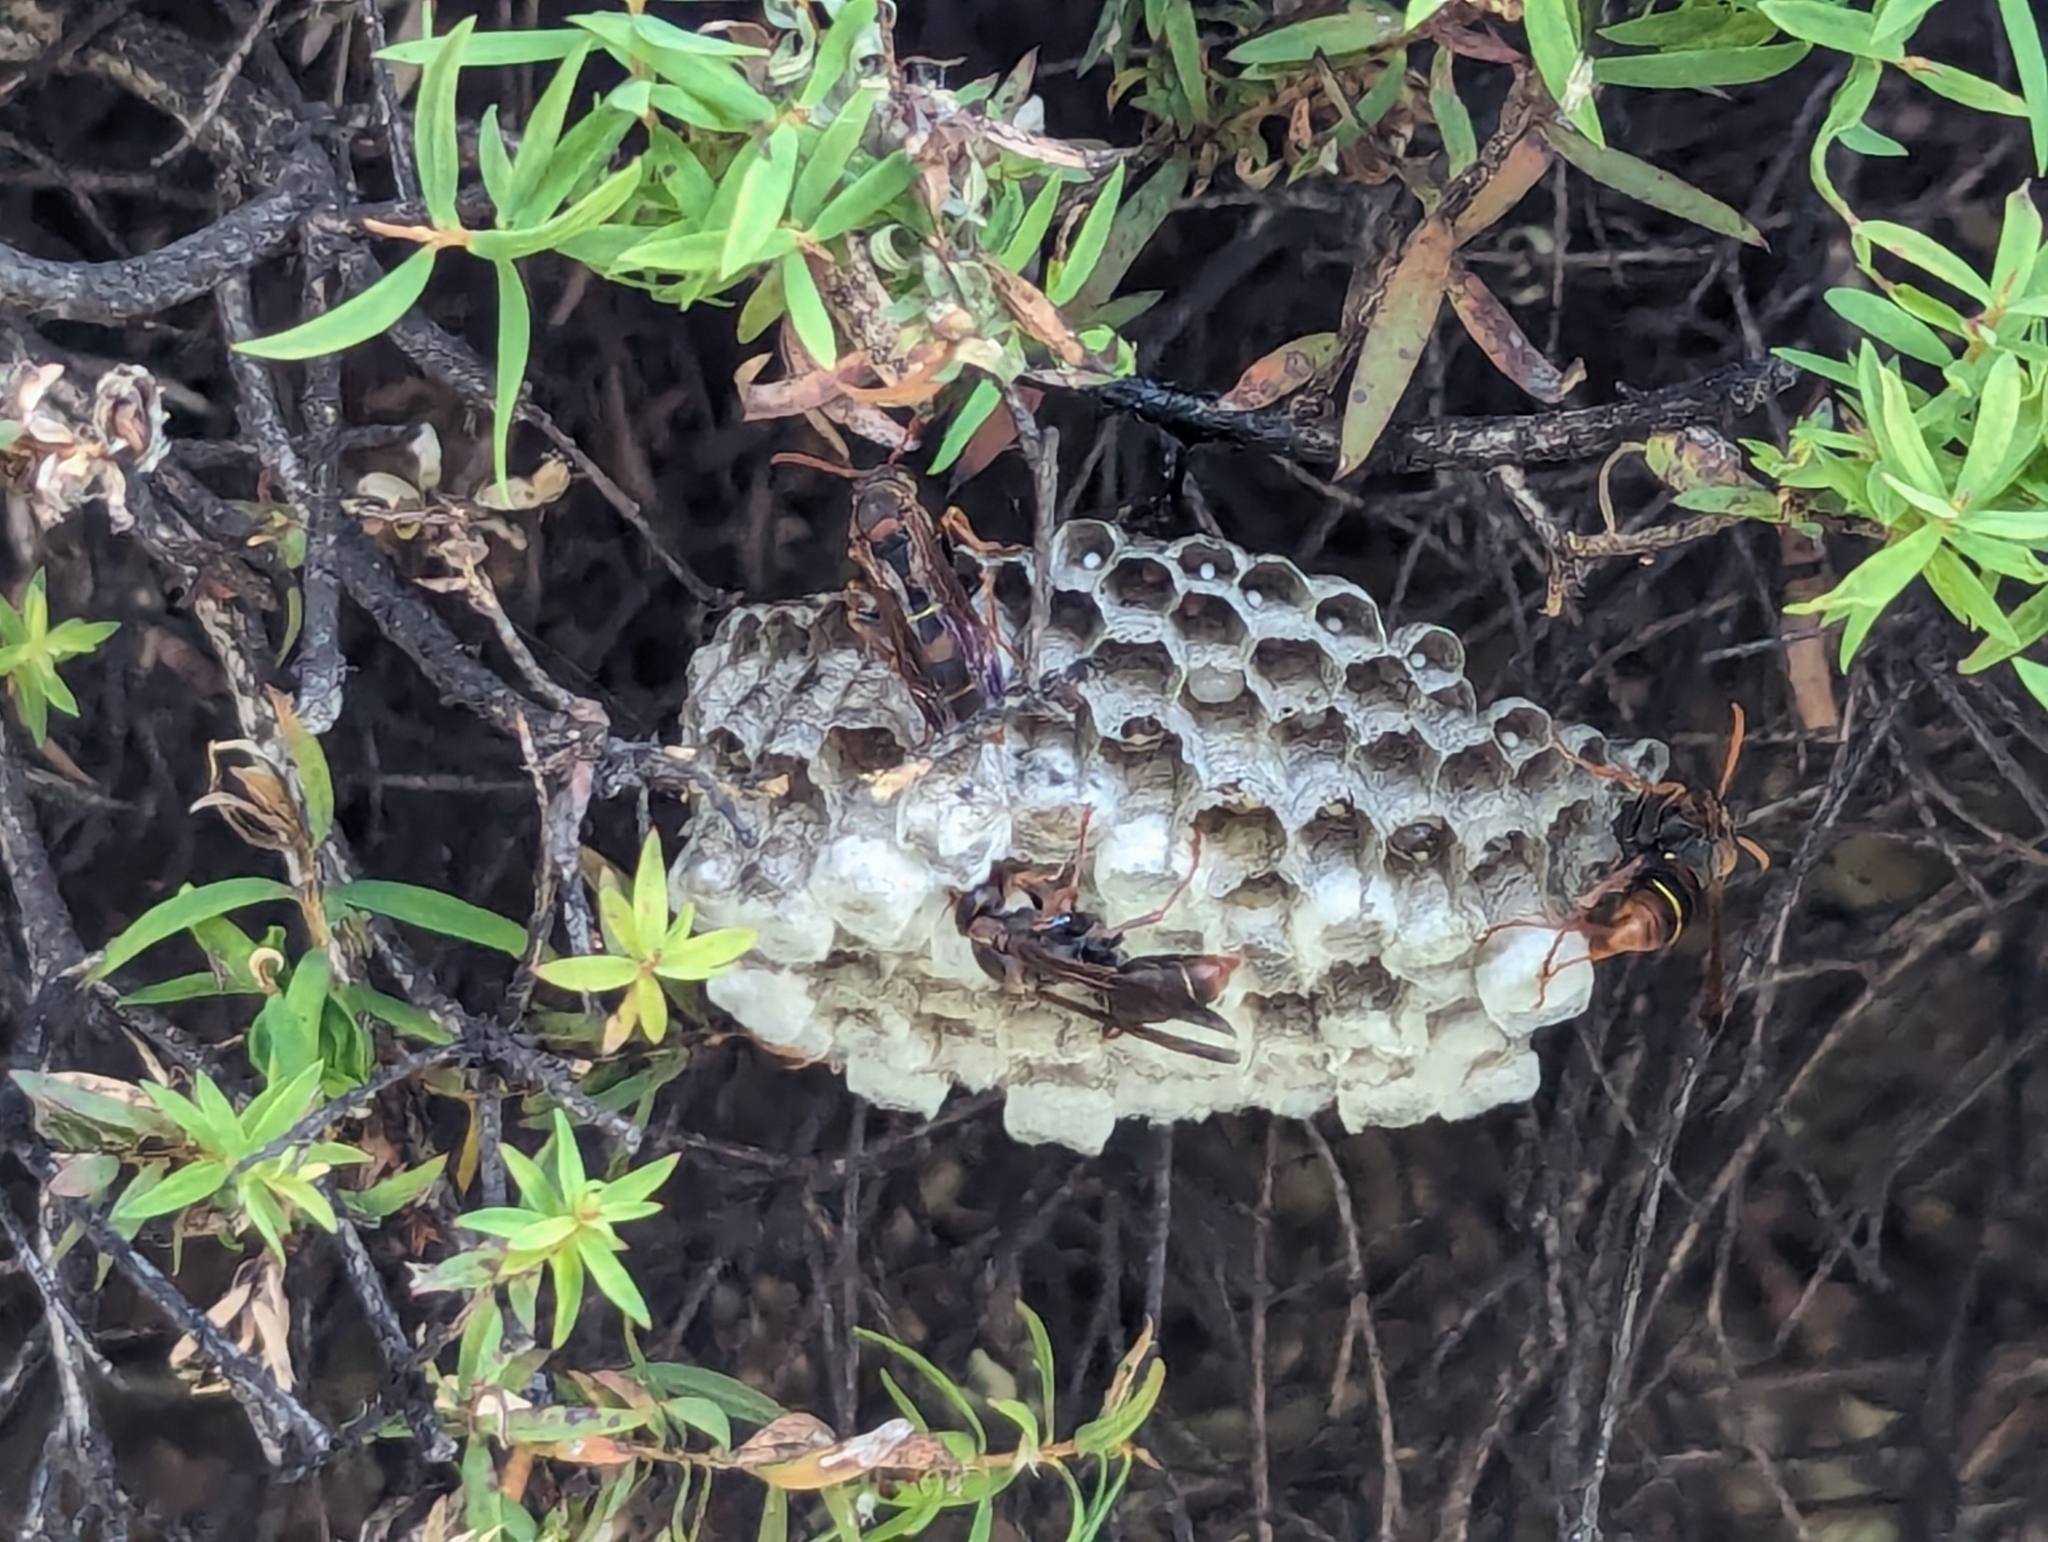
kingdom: Animalia
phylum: Arthropoda
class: Insecta
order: Hymenoptera
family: Eumenidae
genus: Polistes
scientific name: Polistes humilis
